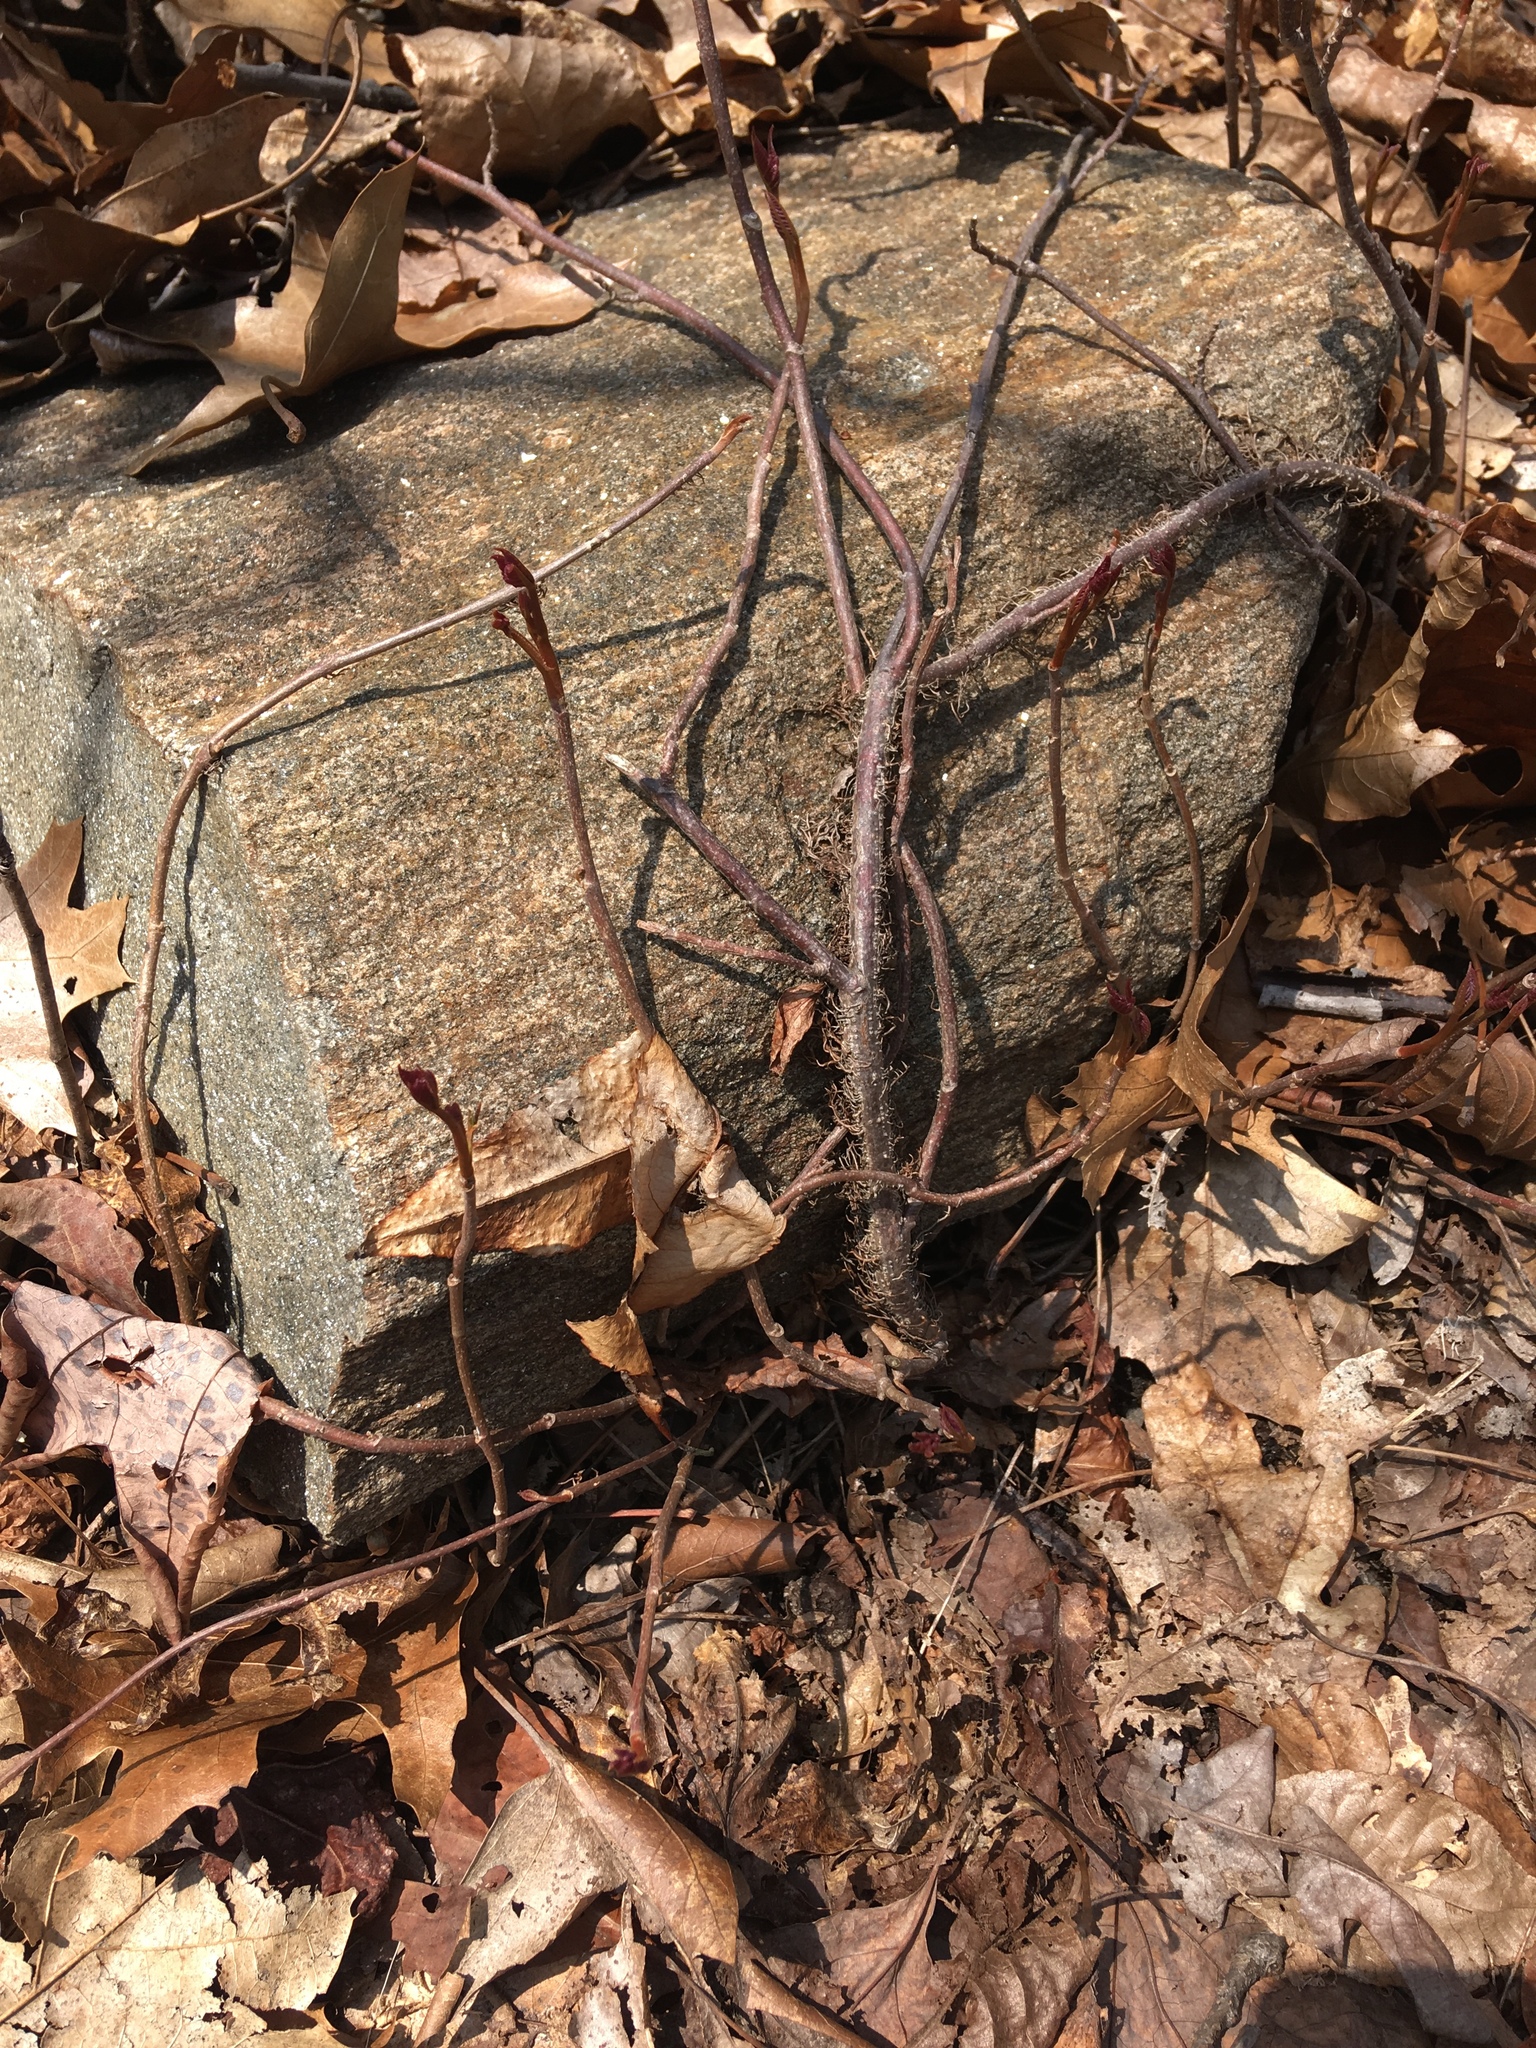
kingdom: Plantae
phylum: Tracheophyta
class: Magnoliopsida
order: Sapindales
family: Anacardiaceae
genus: Toxicodendron
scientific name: Toxicodendron radicans
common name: Poison ivy
